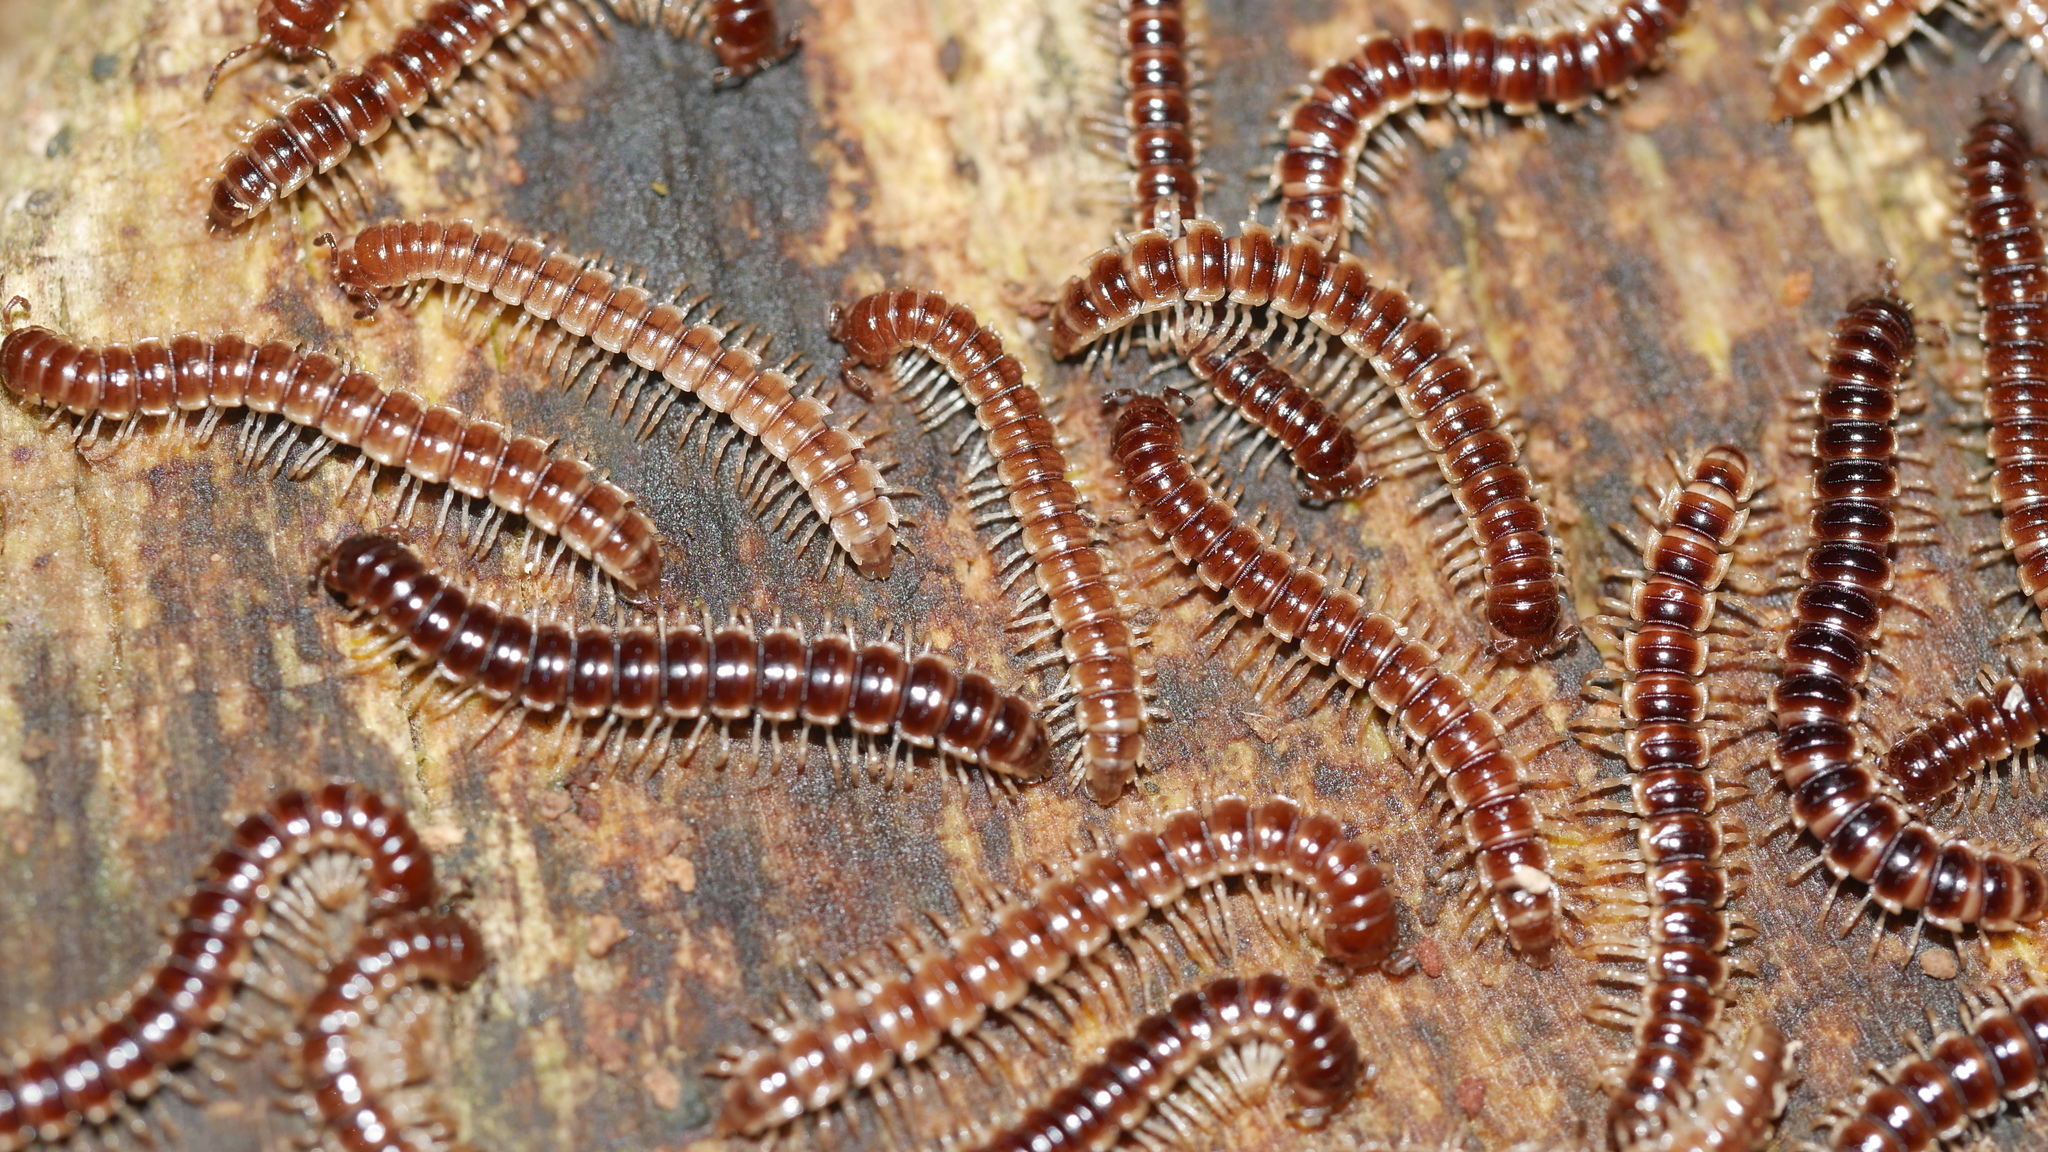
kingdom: Animalia
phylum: Arthropoda
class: Diplopoda
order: Polydesmida
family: Paradoxosomatidae
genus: Oxidus
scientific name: Oxidus gracilis
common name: Greenhouse millipede
